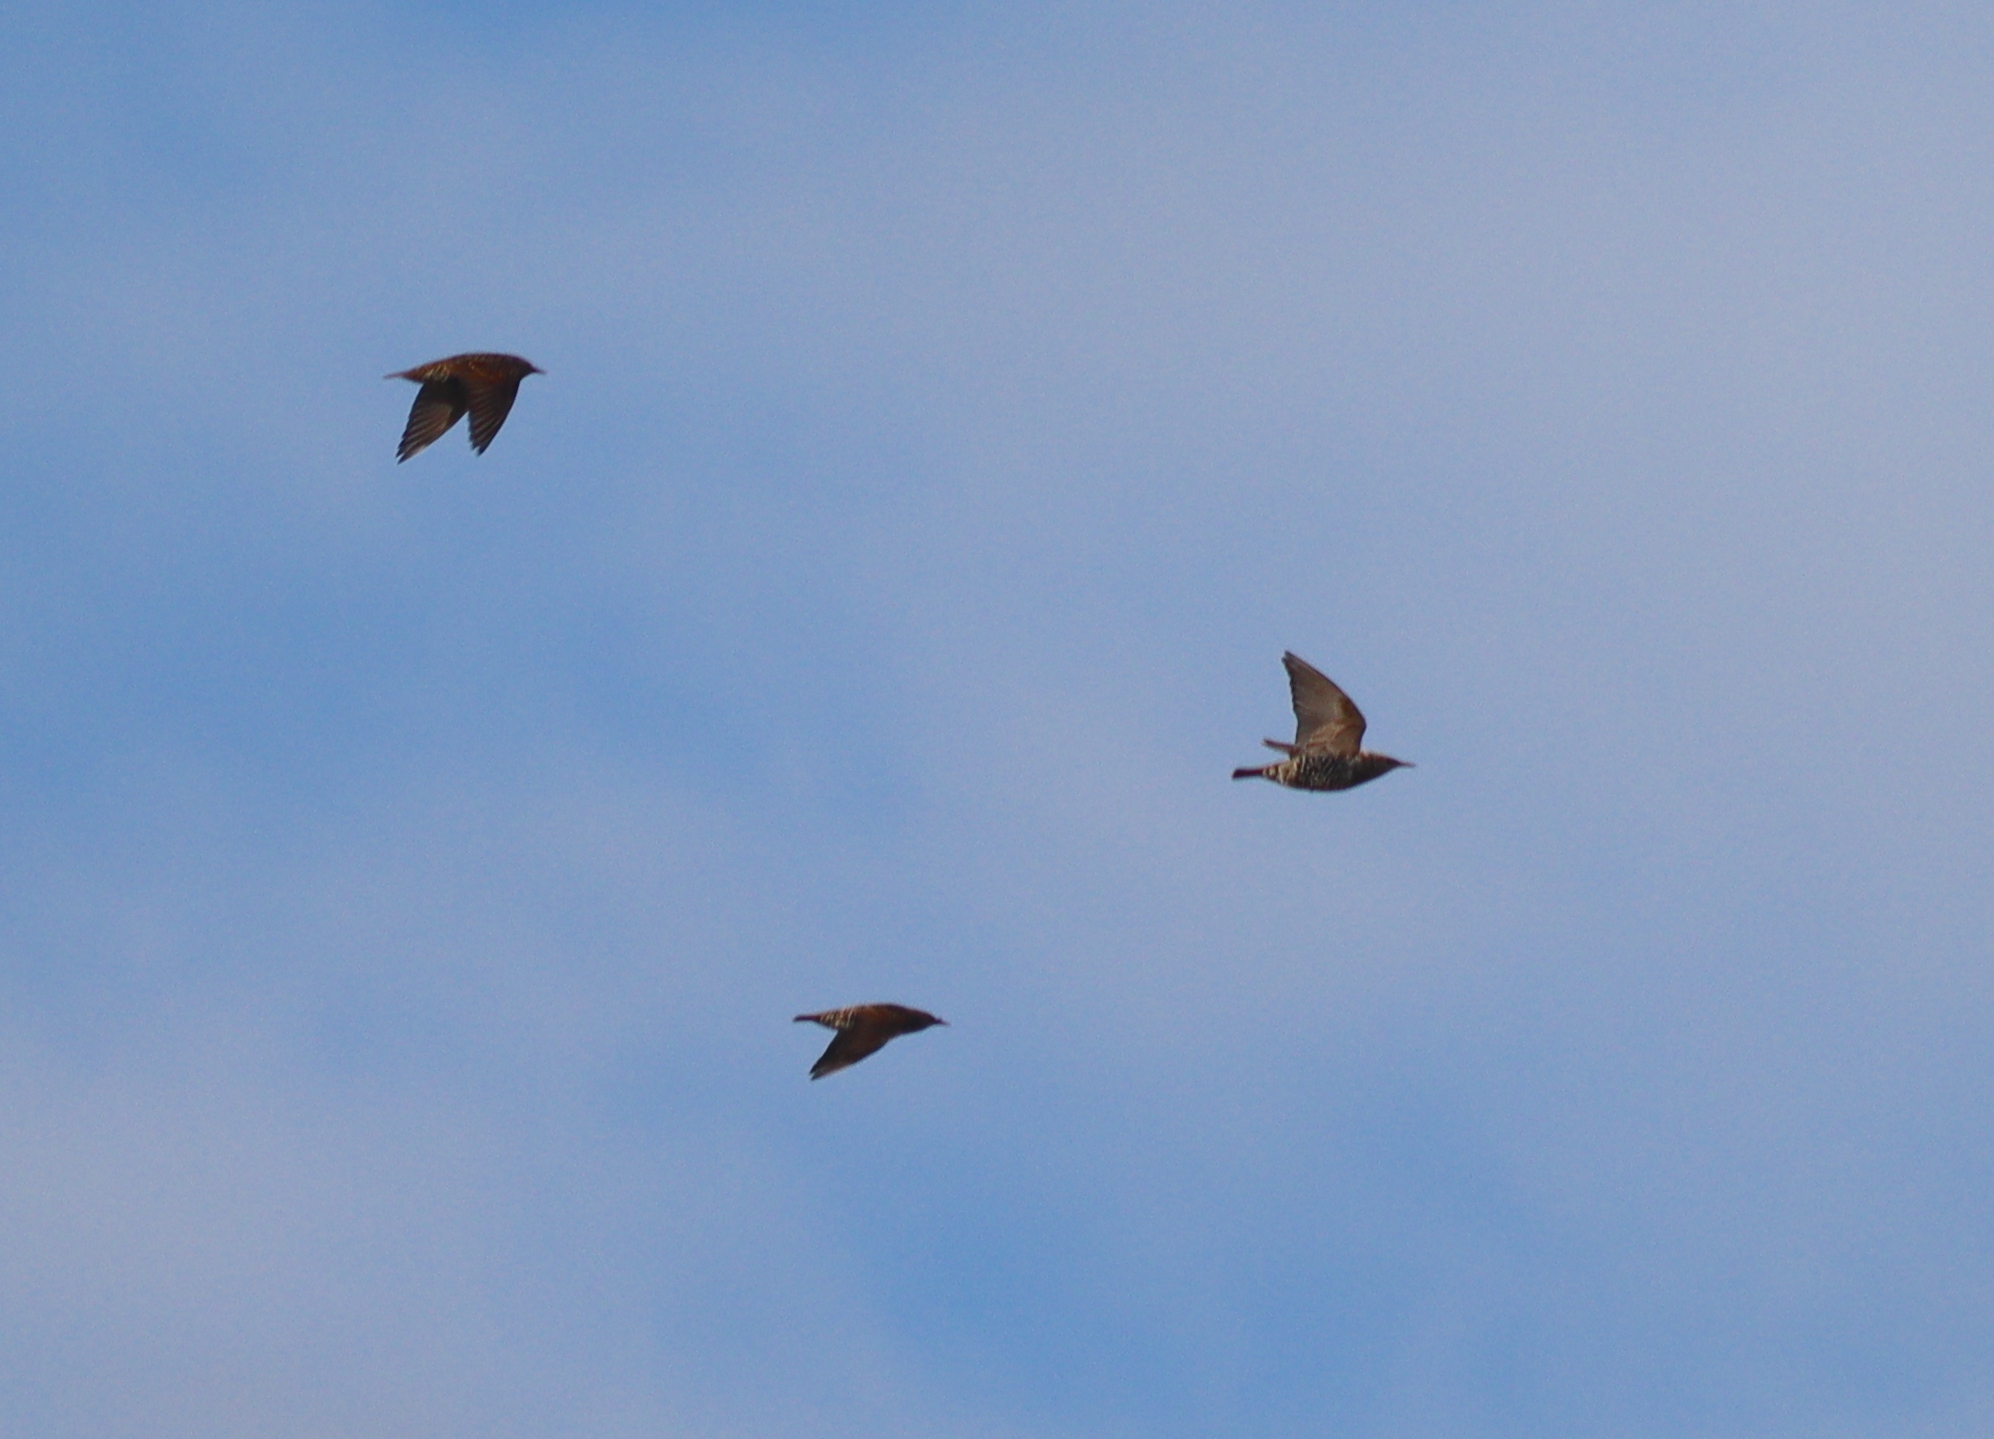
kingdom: Animalia
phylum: Chordata
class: Aves
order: Passeriformes
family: Sturnidae
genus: Sturnus
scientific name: Sturnus vulgaris
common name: Common starling
